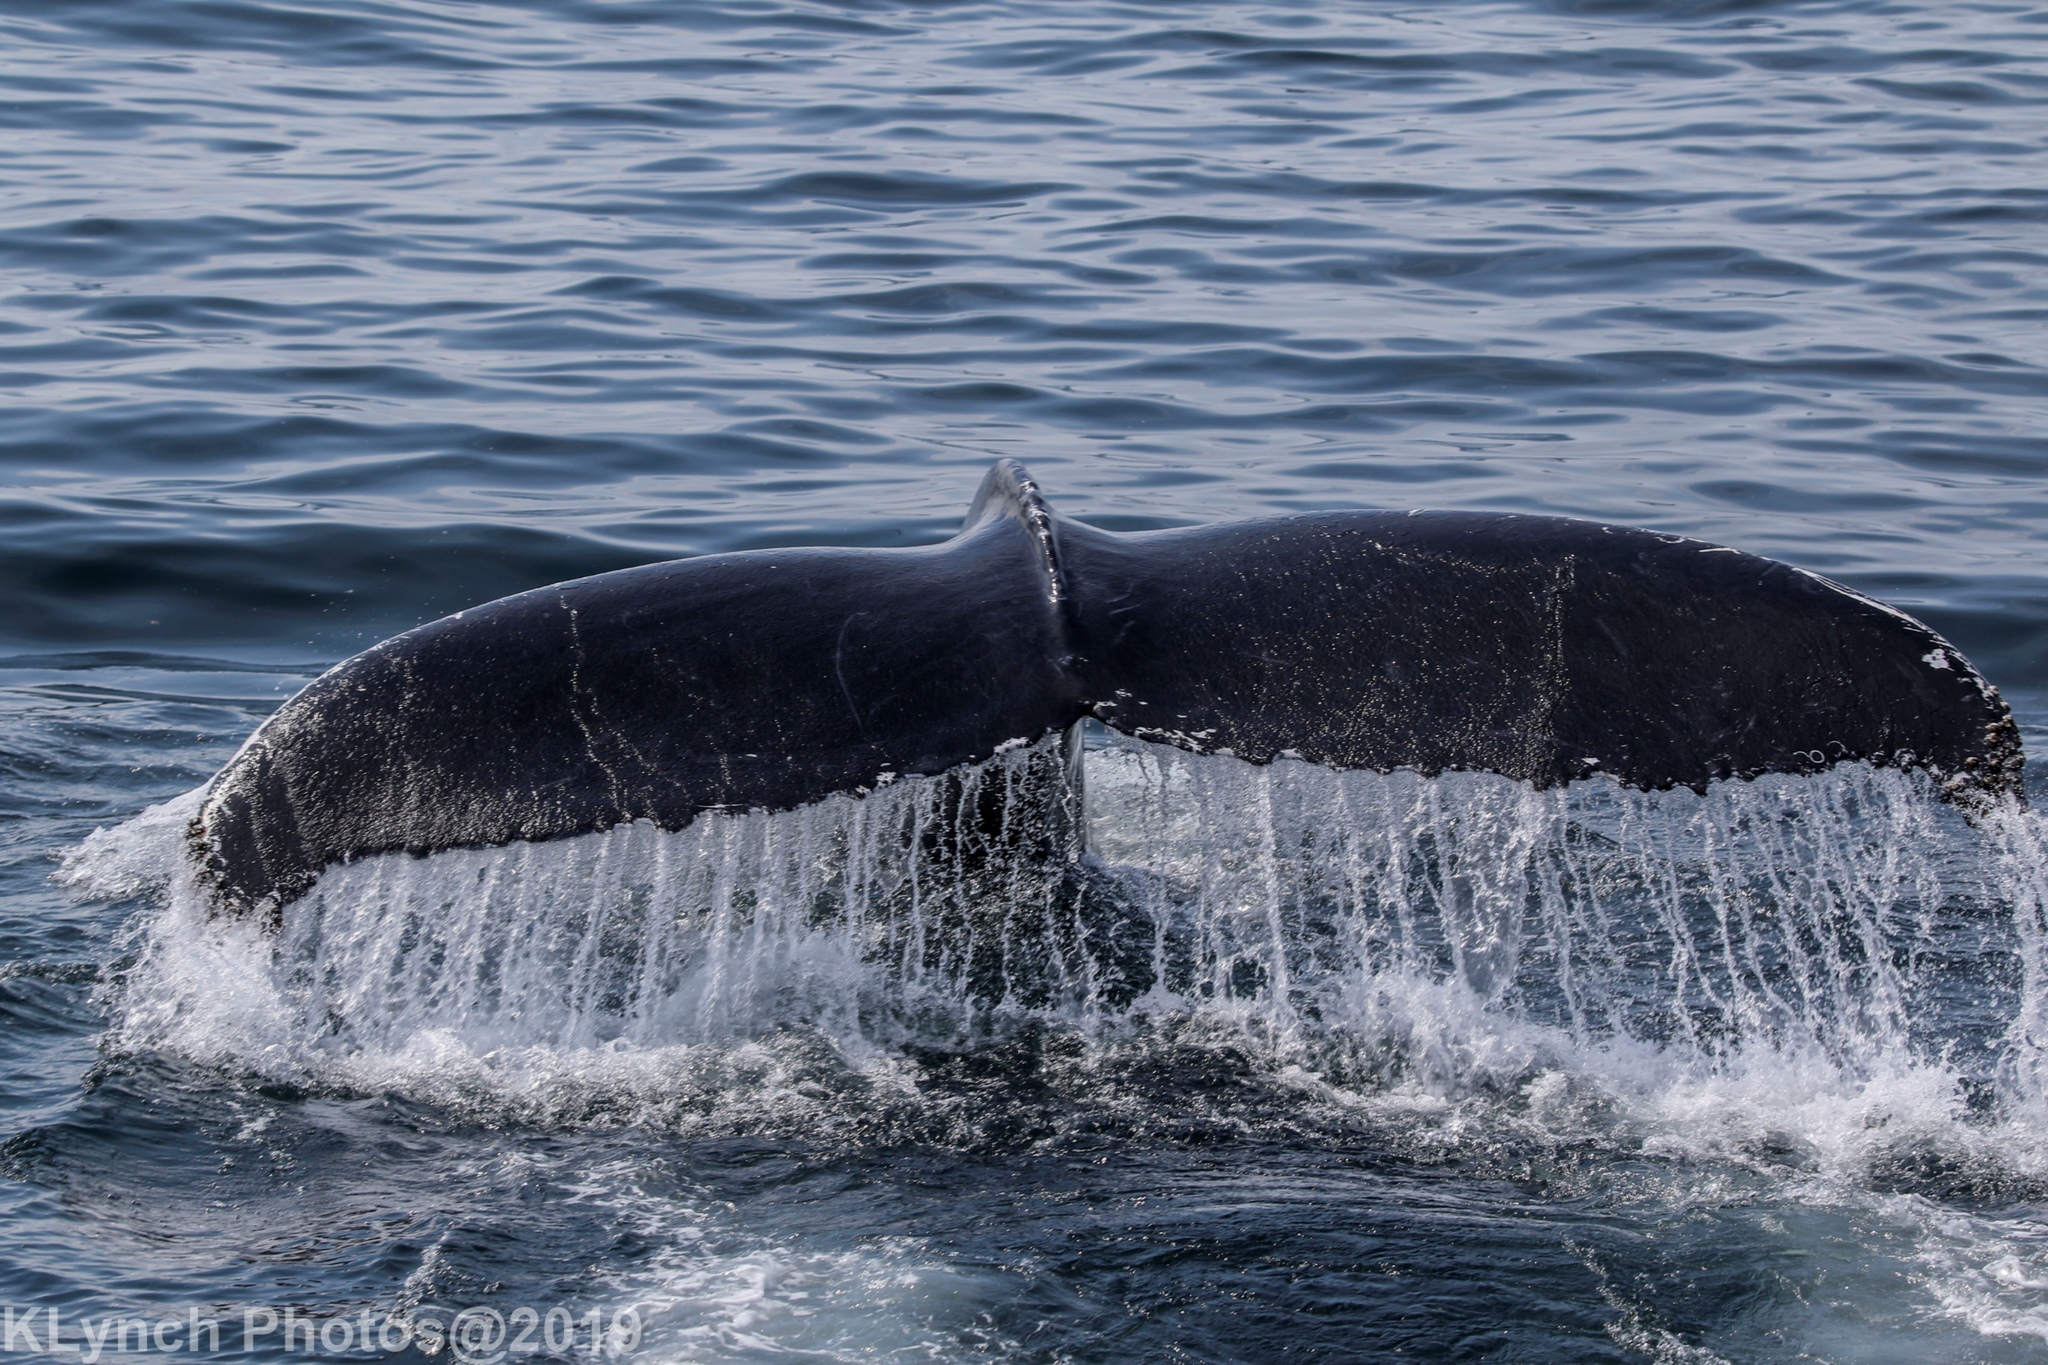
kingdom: Animalia
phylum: Chordata
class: Mammalia
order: Cetacea
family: Balaenopteridae
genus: Megaptera
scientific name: Megaptera novaeangliae
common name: Humpback whale
